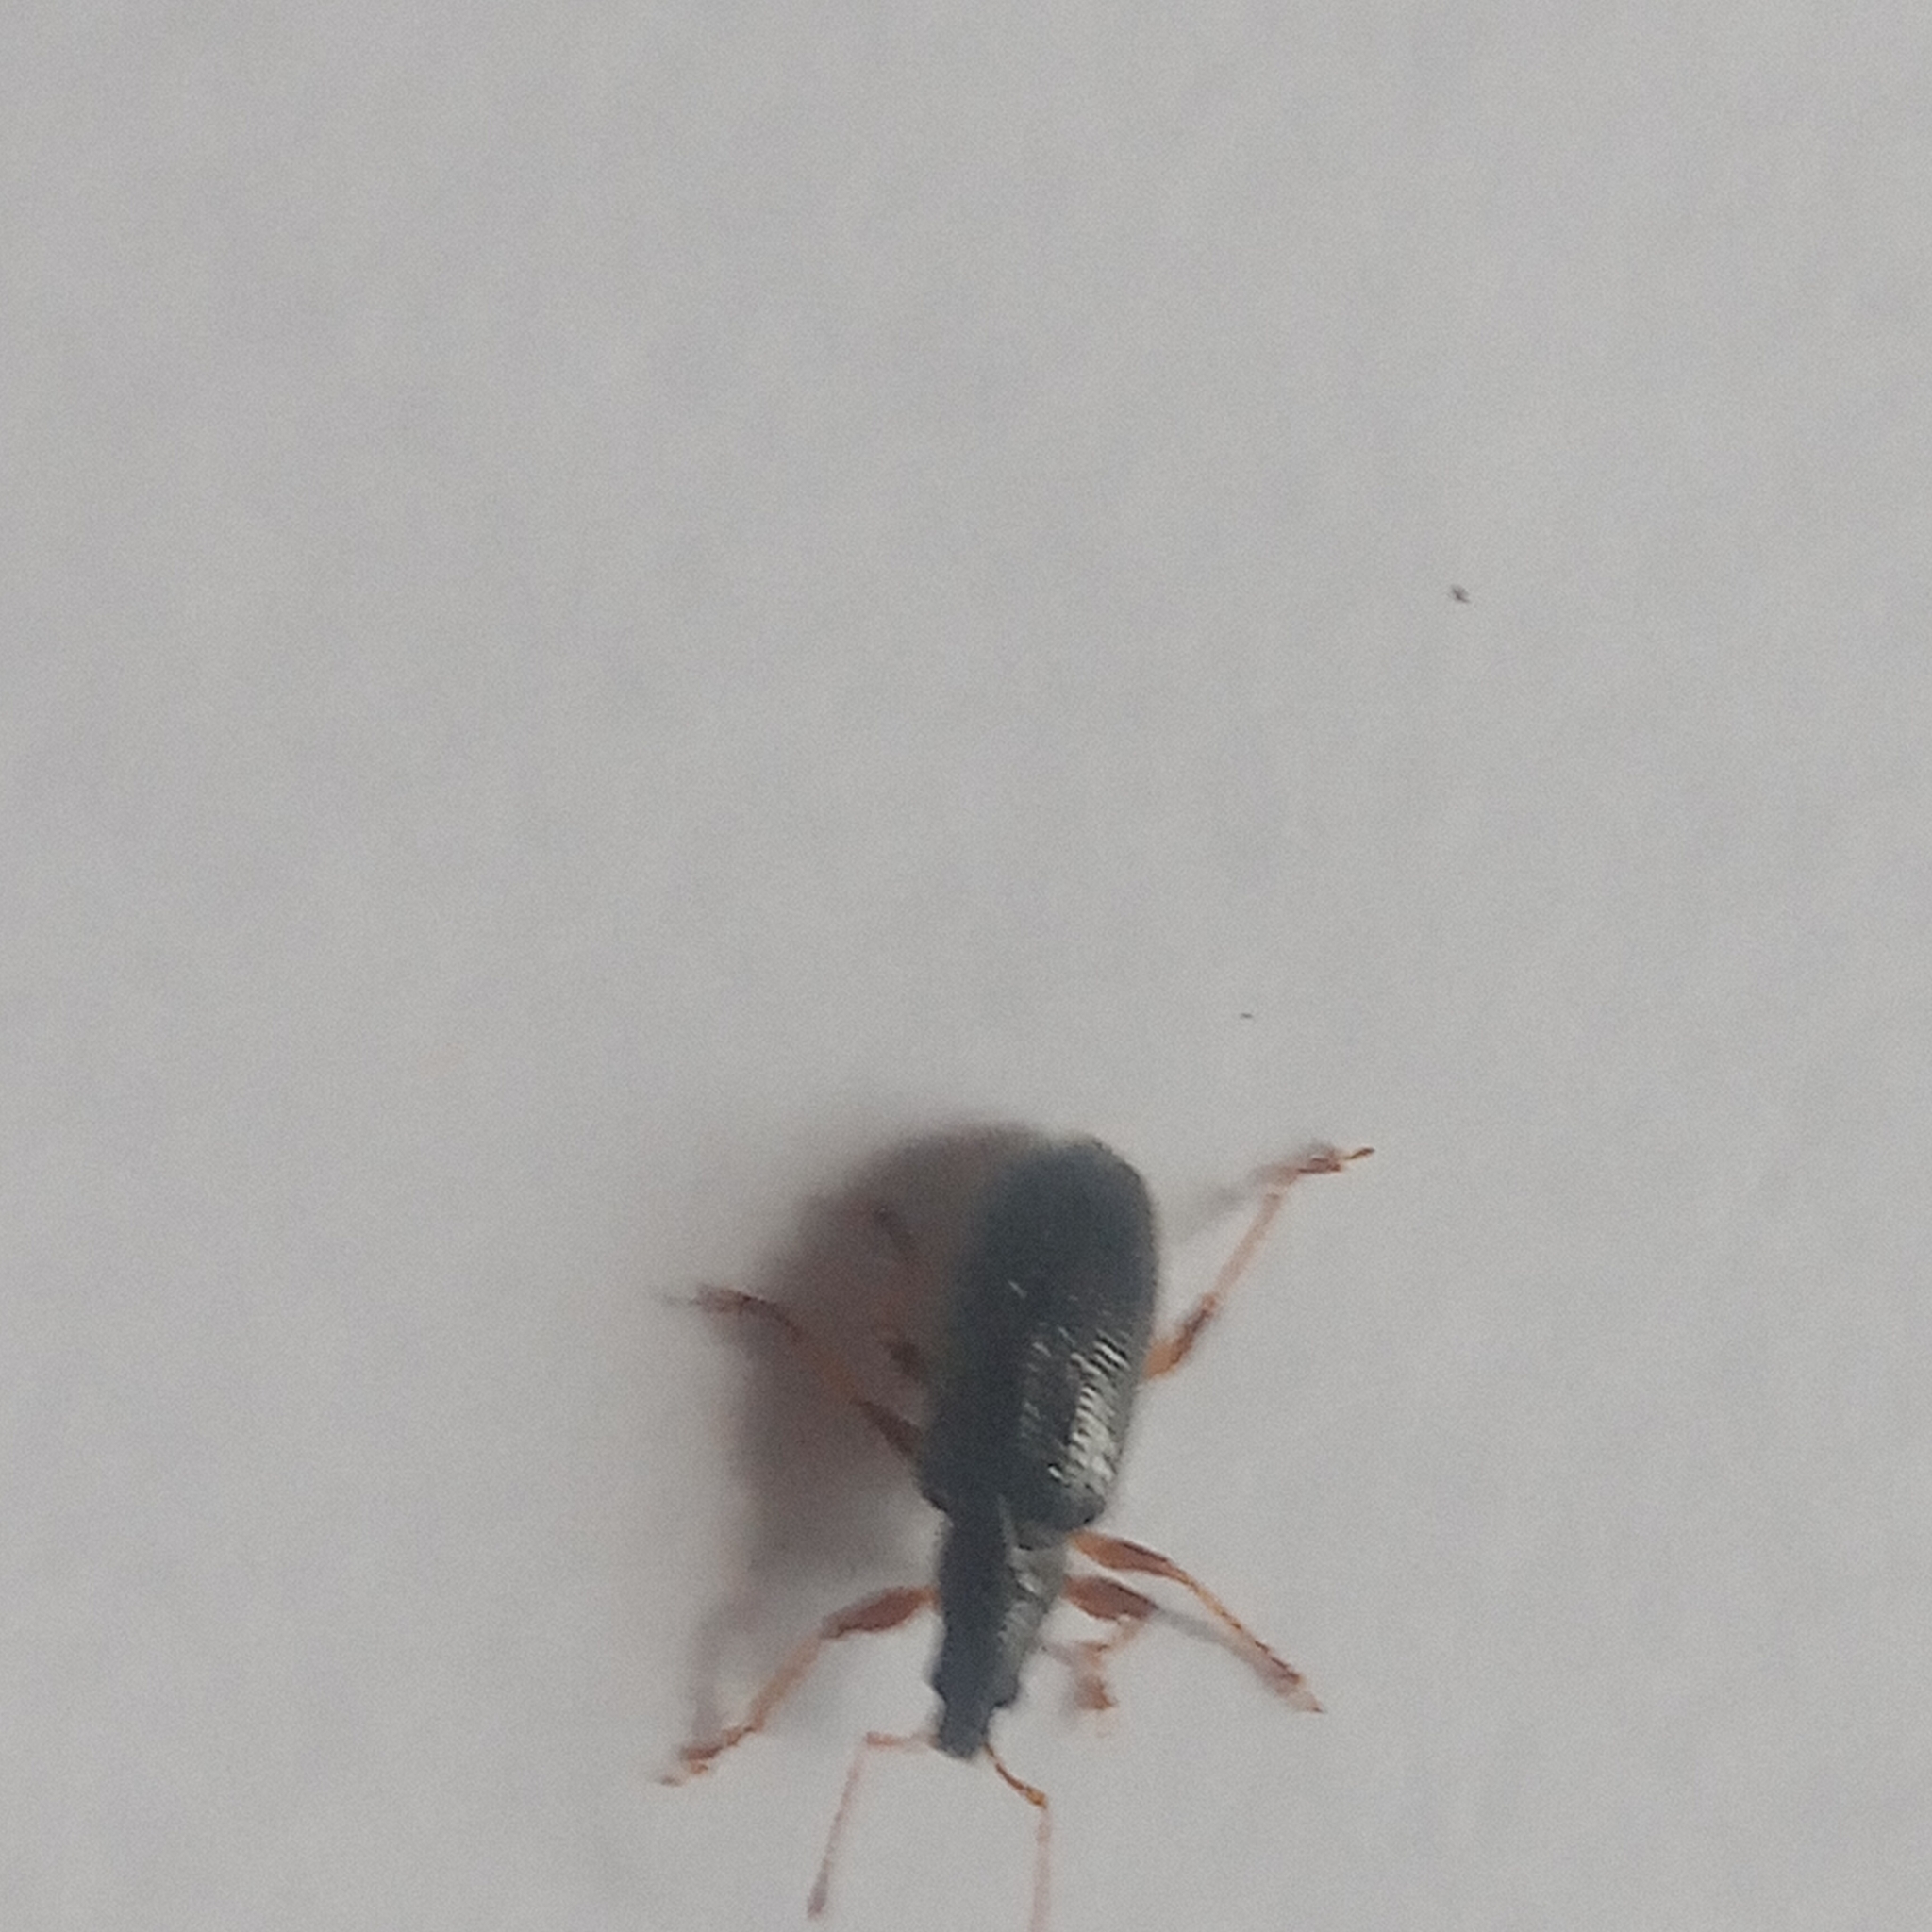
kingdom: Animalia
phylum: Arthropoda
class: Insecta
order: Coleoptera
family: Curculionidae
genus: Phyllobius
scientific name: Phyllobius oblongus
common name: Brown leaf weevil
